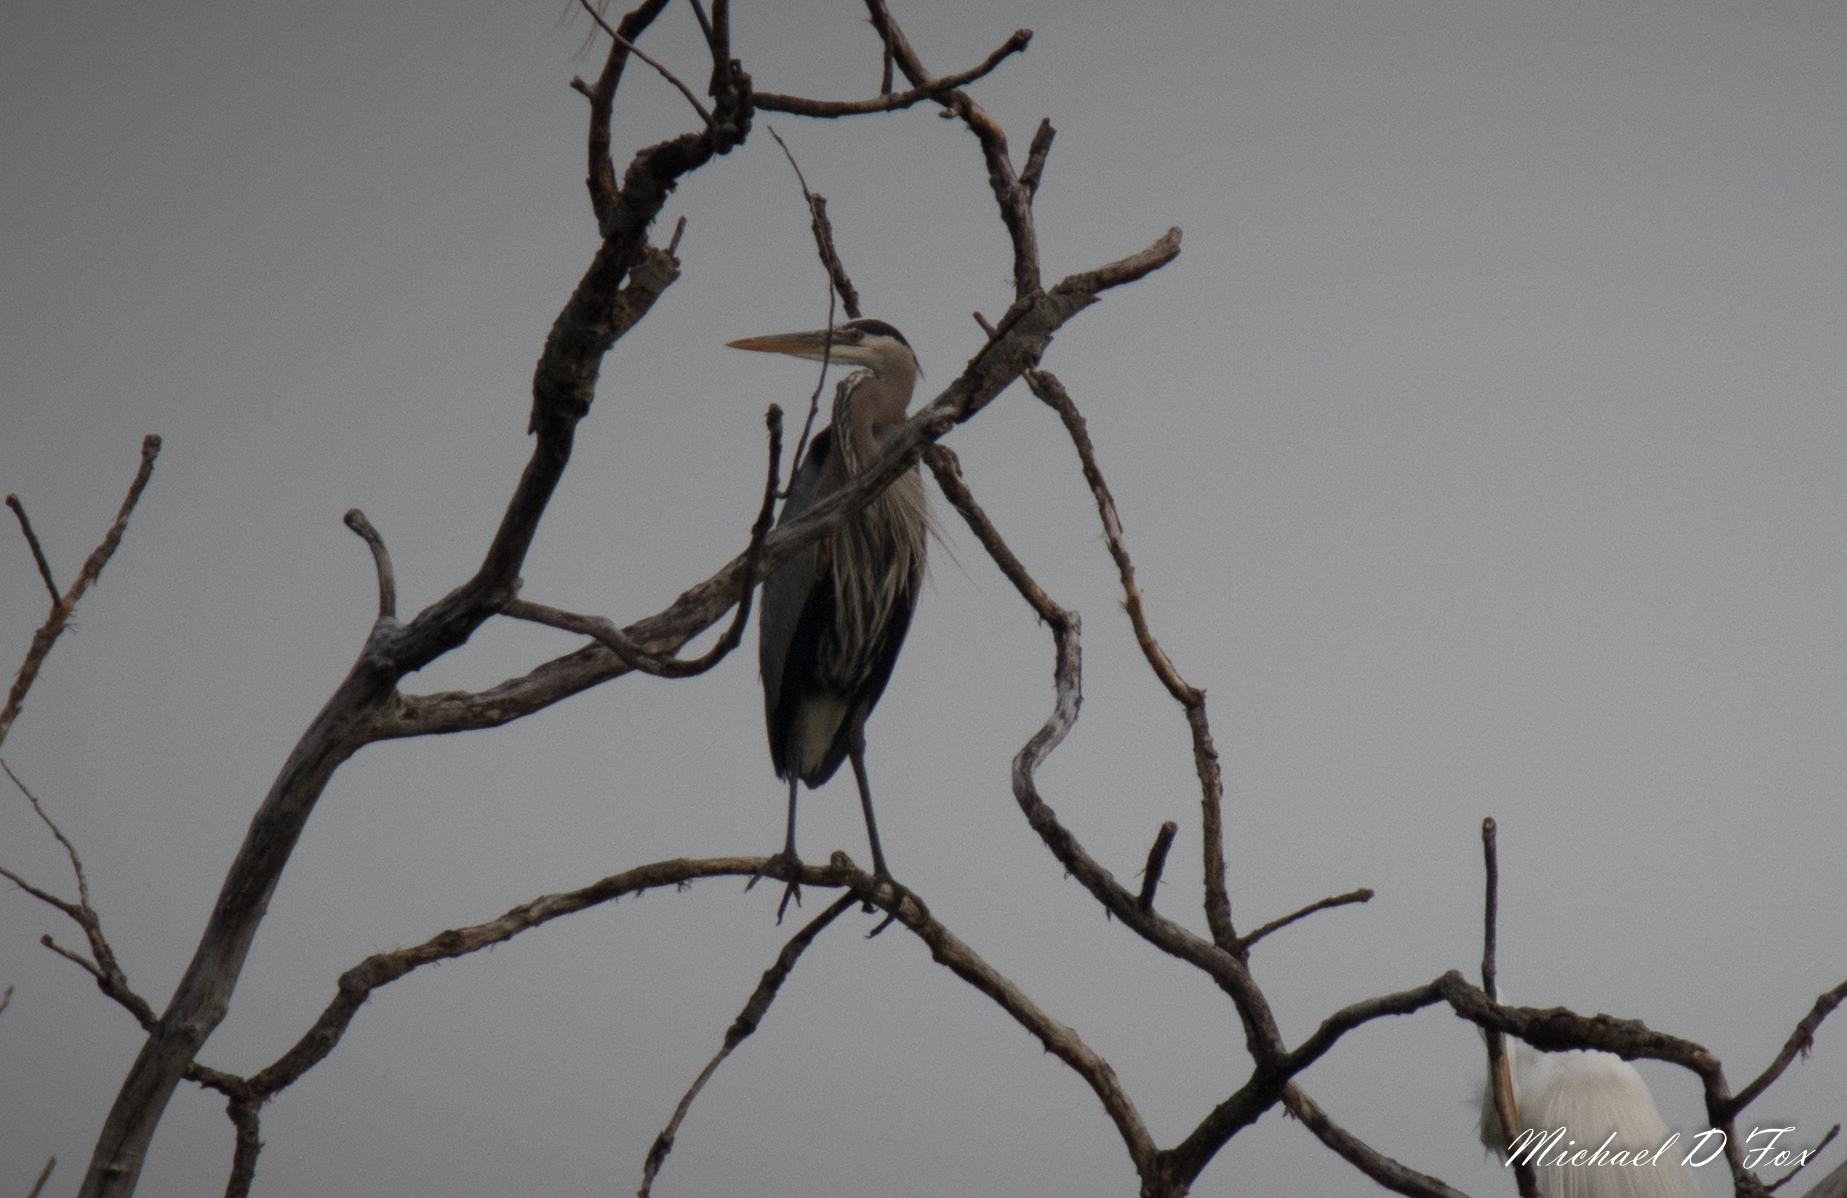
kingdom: Animalia
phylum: Chordata
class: Aves
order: Pelecaniformes
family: Ardeidae
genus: Ardea
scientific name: Ardea herodias
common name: Great blue heron
